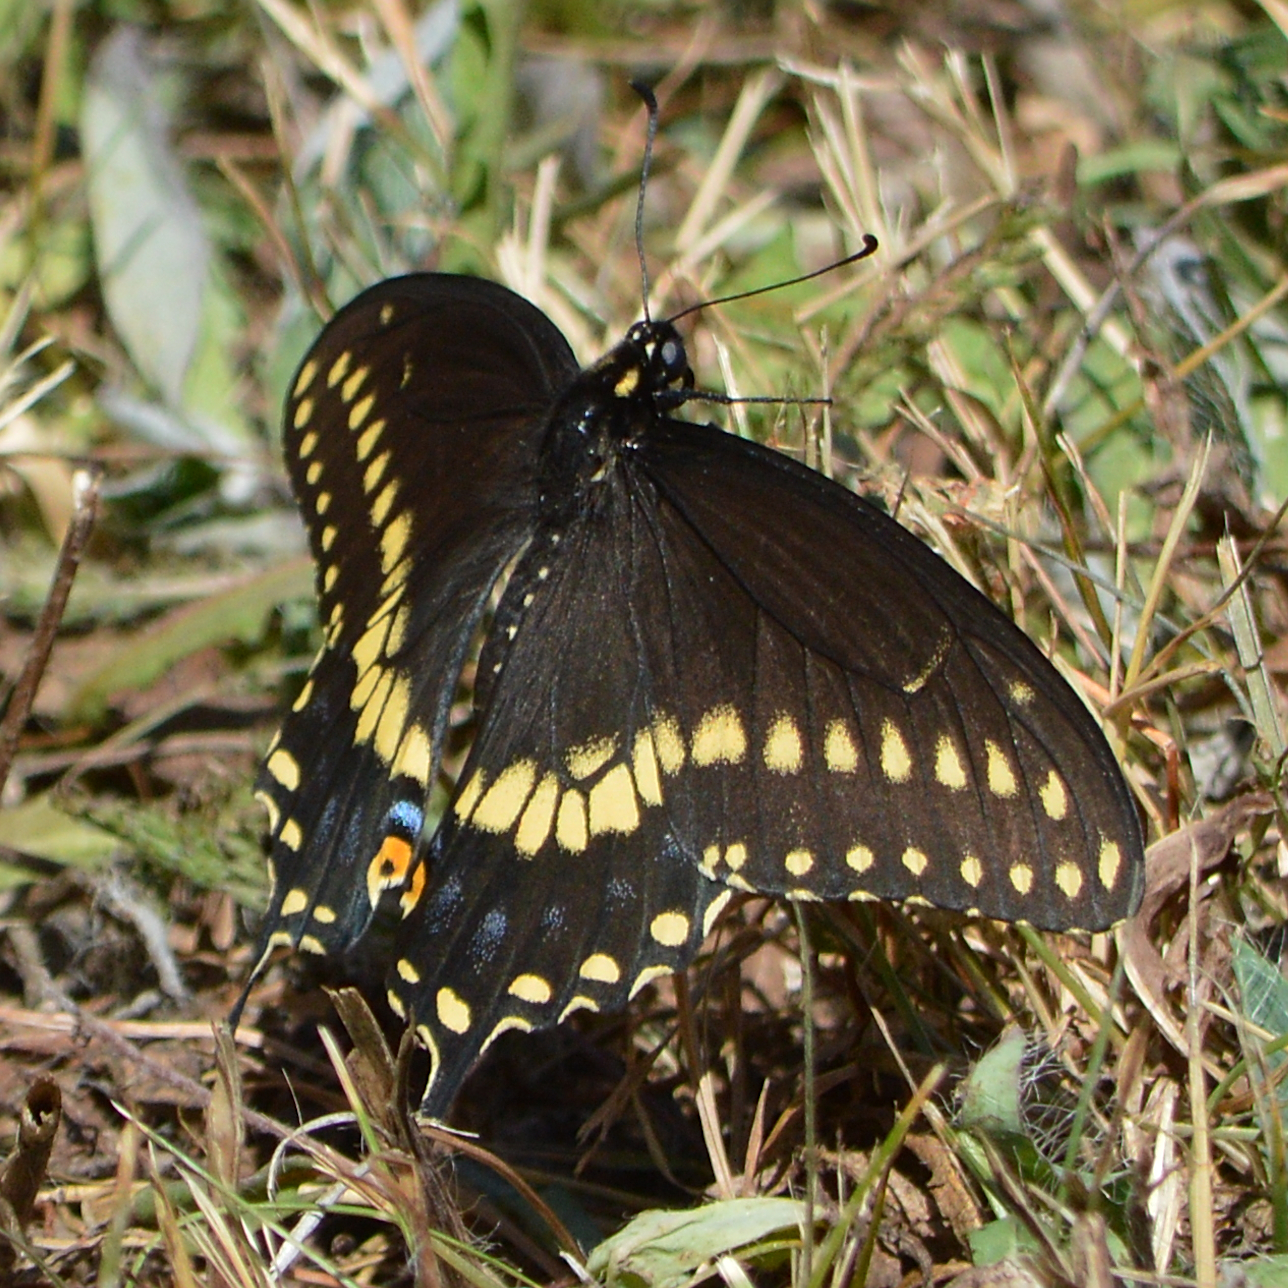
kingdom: Animalia
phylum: Arthropoda
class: Insecta
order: Lepidoptera
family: Papilionidae
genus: Papilio
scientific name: Papilio polyxenes
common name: Black swallowtail
